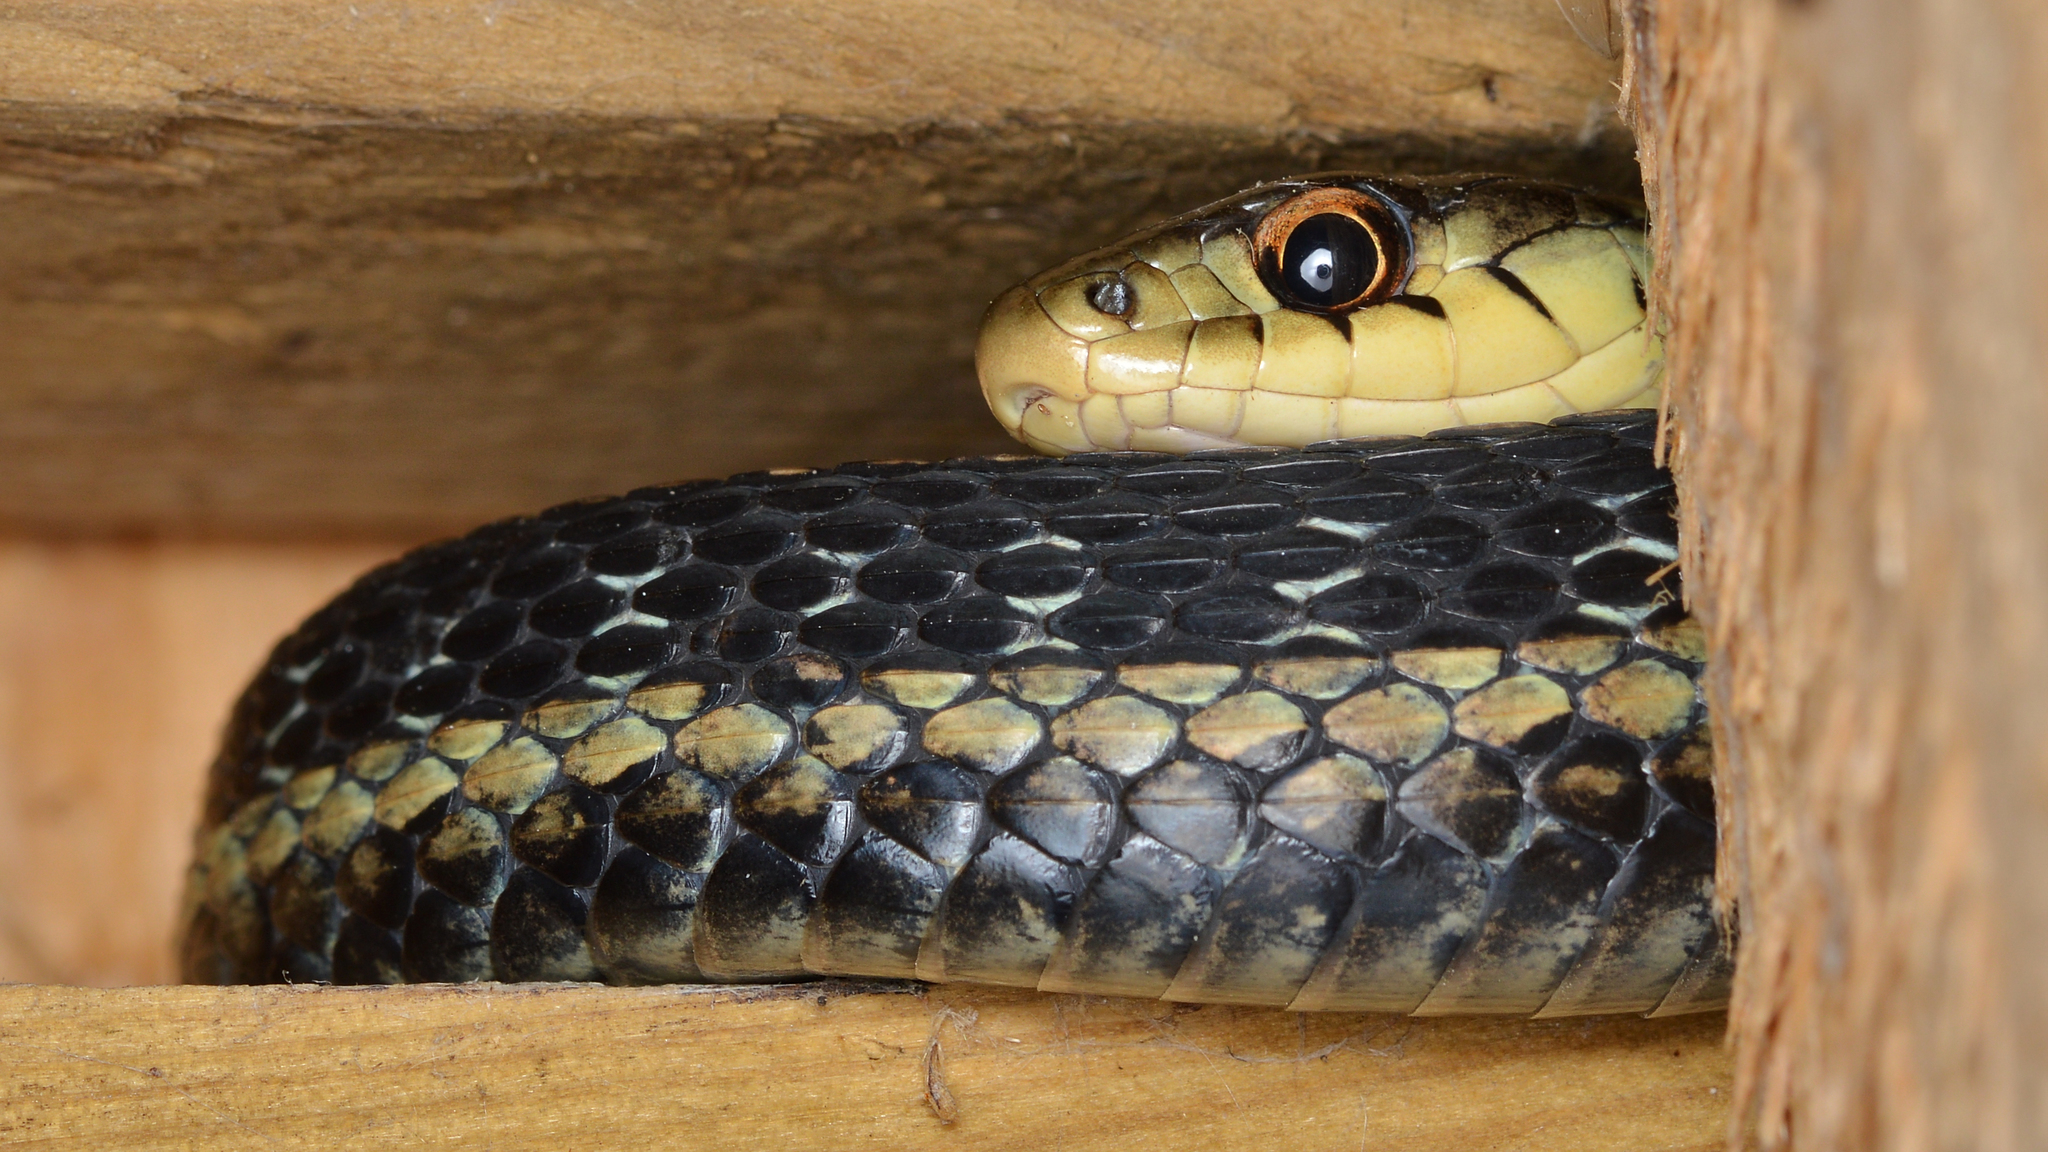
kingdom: Animalia
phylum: Chordata
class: Squamata
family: Colubridae
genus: Thamnophis
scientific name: Thamnophis sirtalis
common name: Common garter snake
